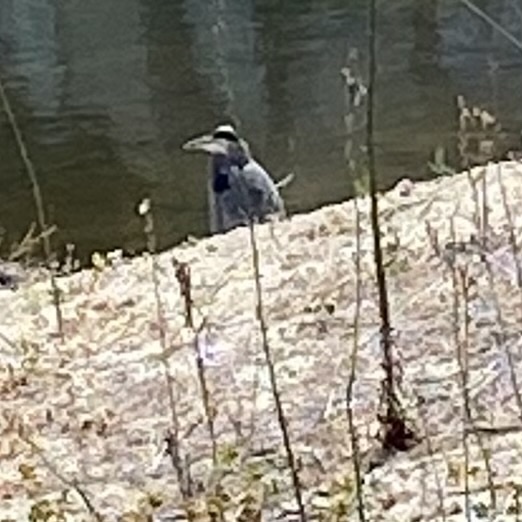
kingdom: Animalia
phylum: Chordata
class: Aves
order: Pelecaniformes
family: Ardeidae
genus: Ardea
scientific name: Ardea herodias
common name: Great blue heron
